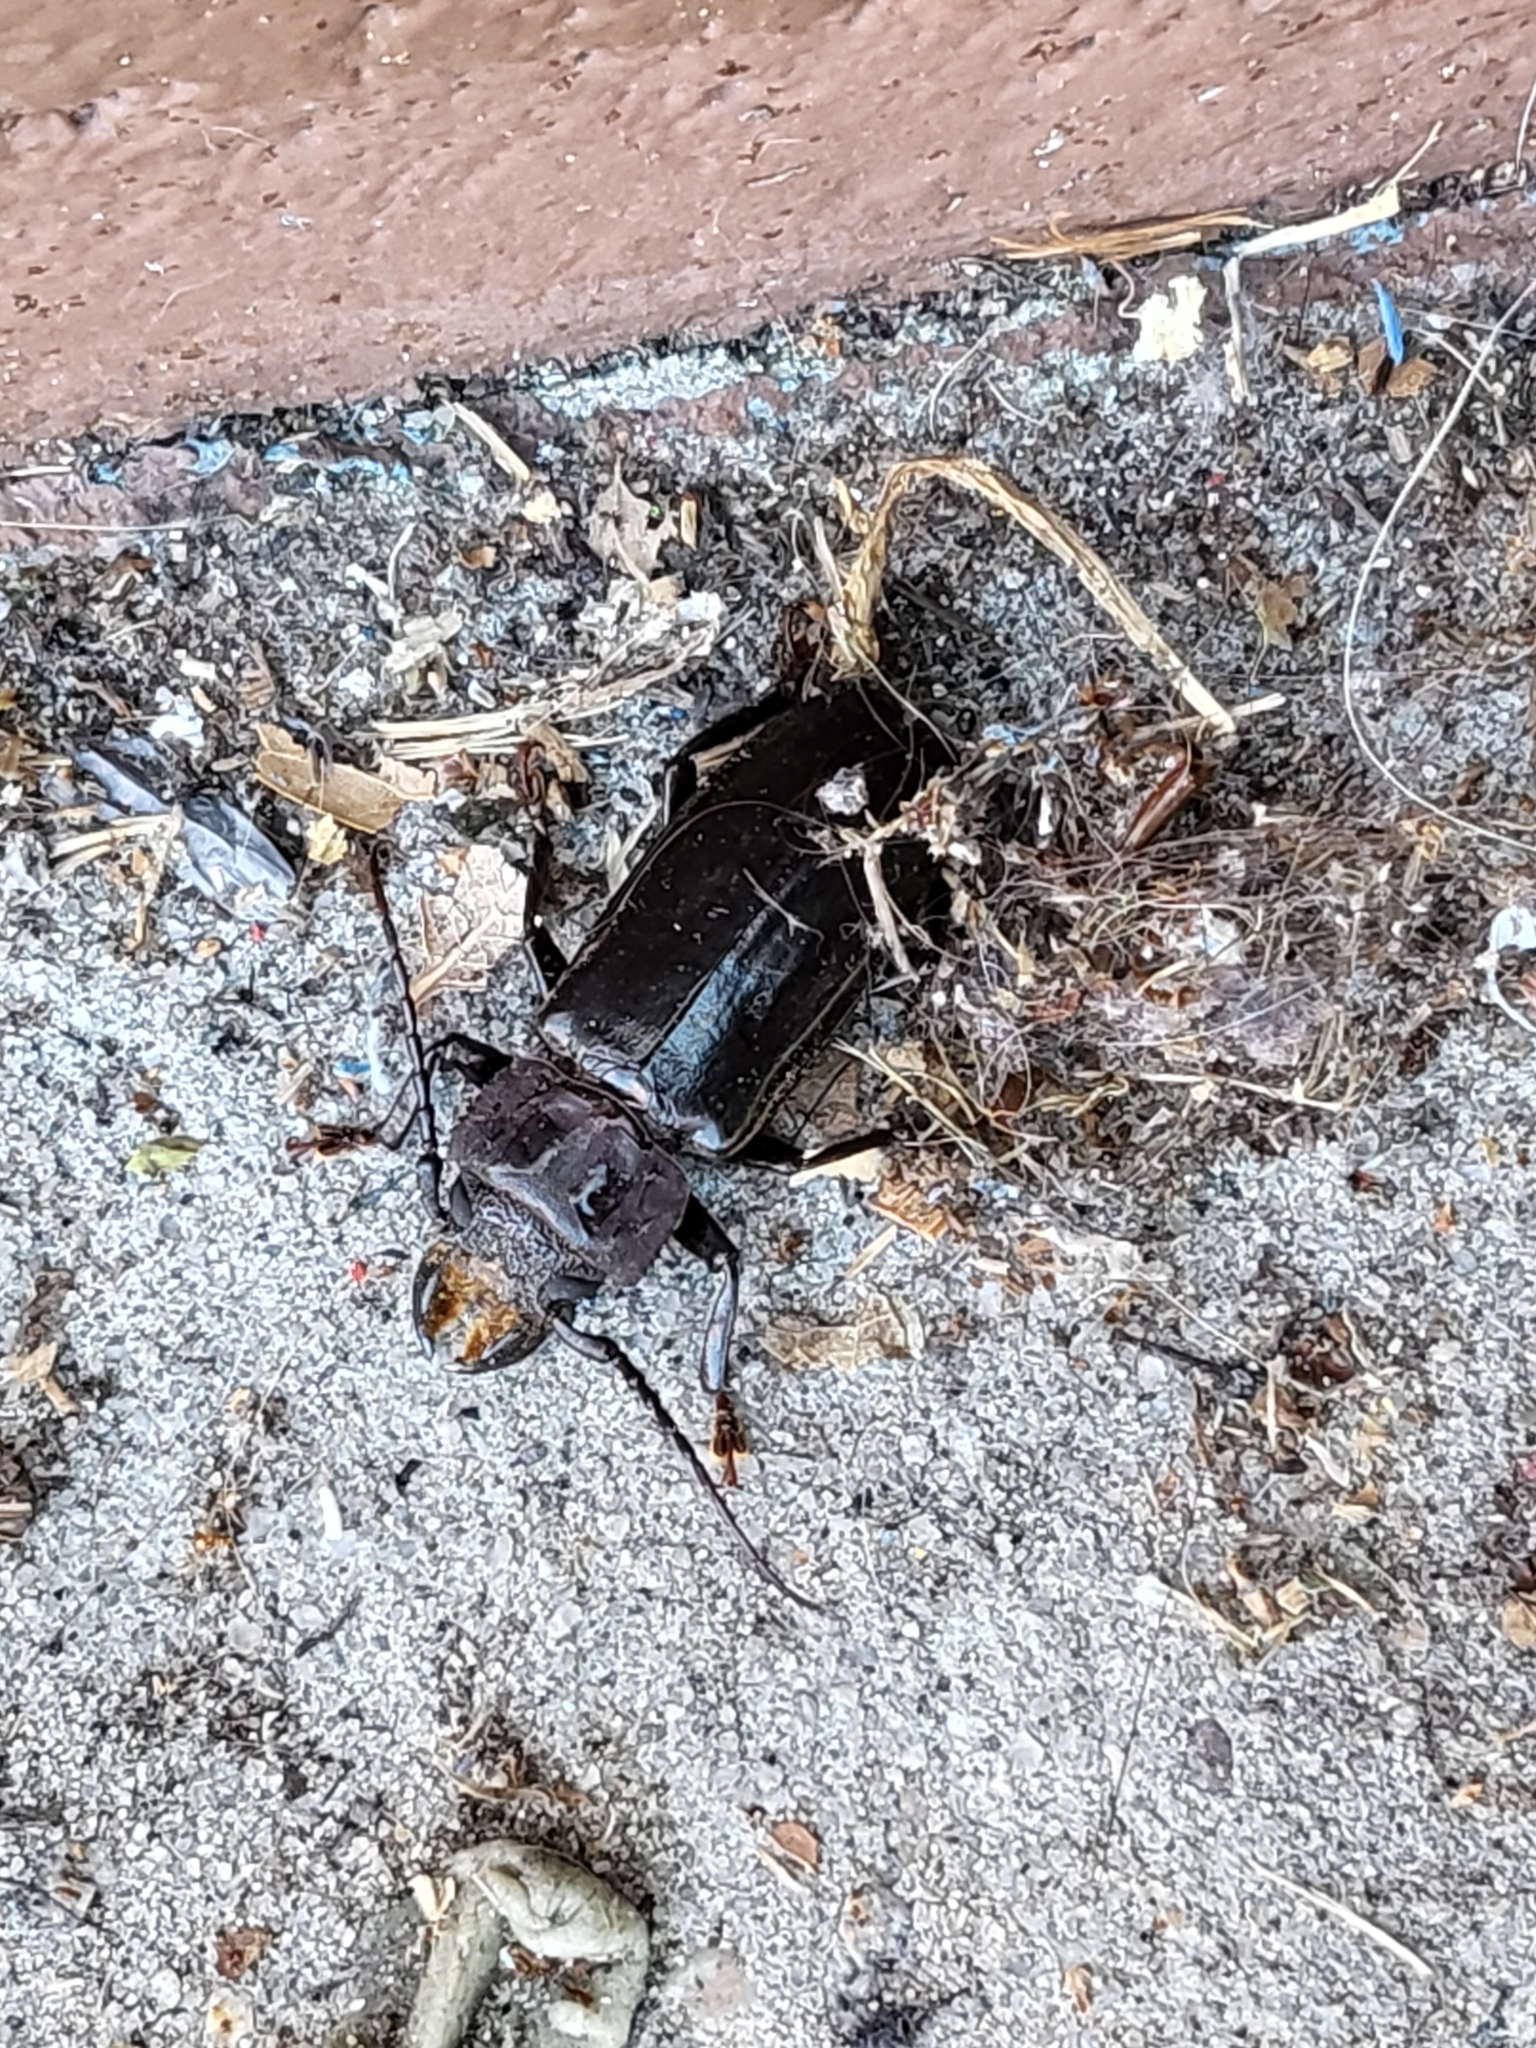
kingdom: Animalia
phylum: Arthropoda
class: Insecta
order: Coleoptera
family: Cerambycidae
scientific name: Cerambycidae
